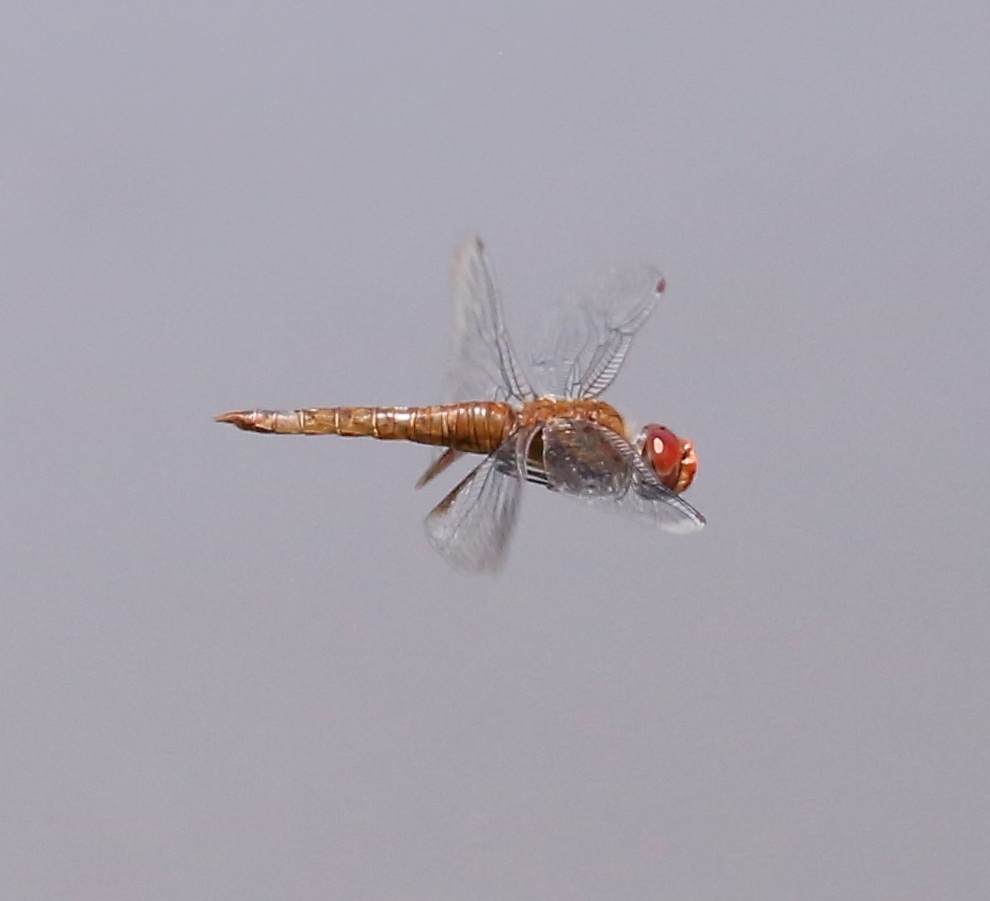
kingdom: Animalia
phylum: Arthropoda
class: Insecta
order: Odonata
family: Libellulidae
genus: Pantala
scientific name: Pantala hymenaea
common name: Spot-winged glider
